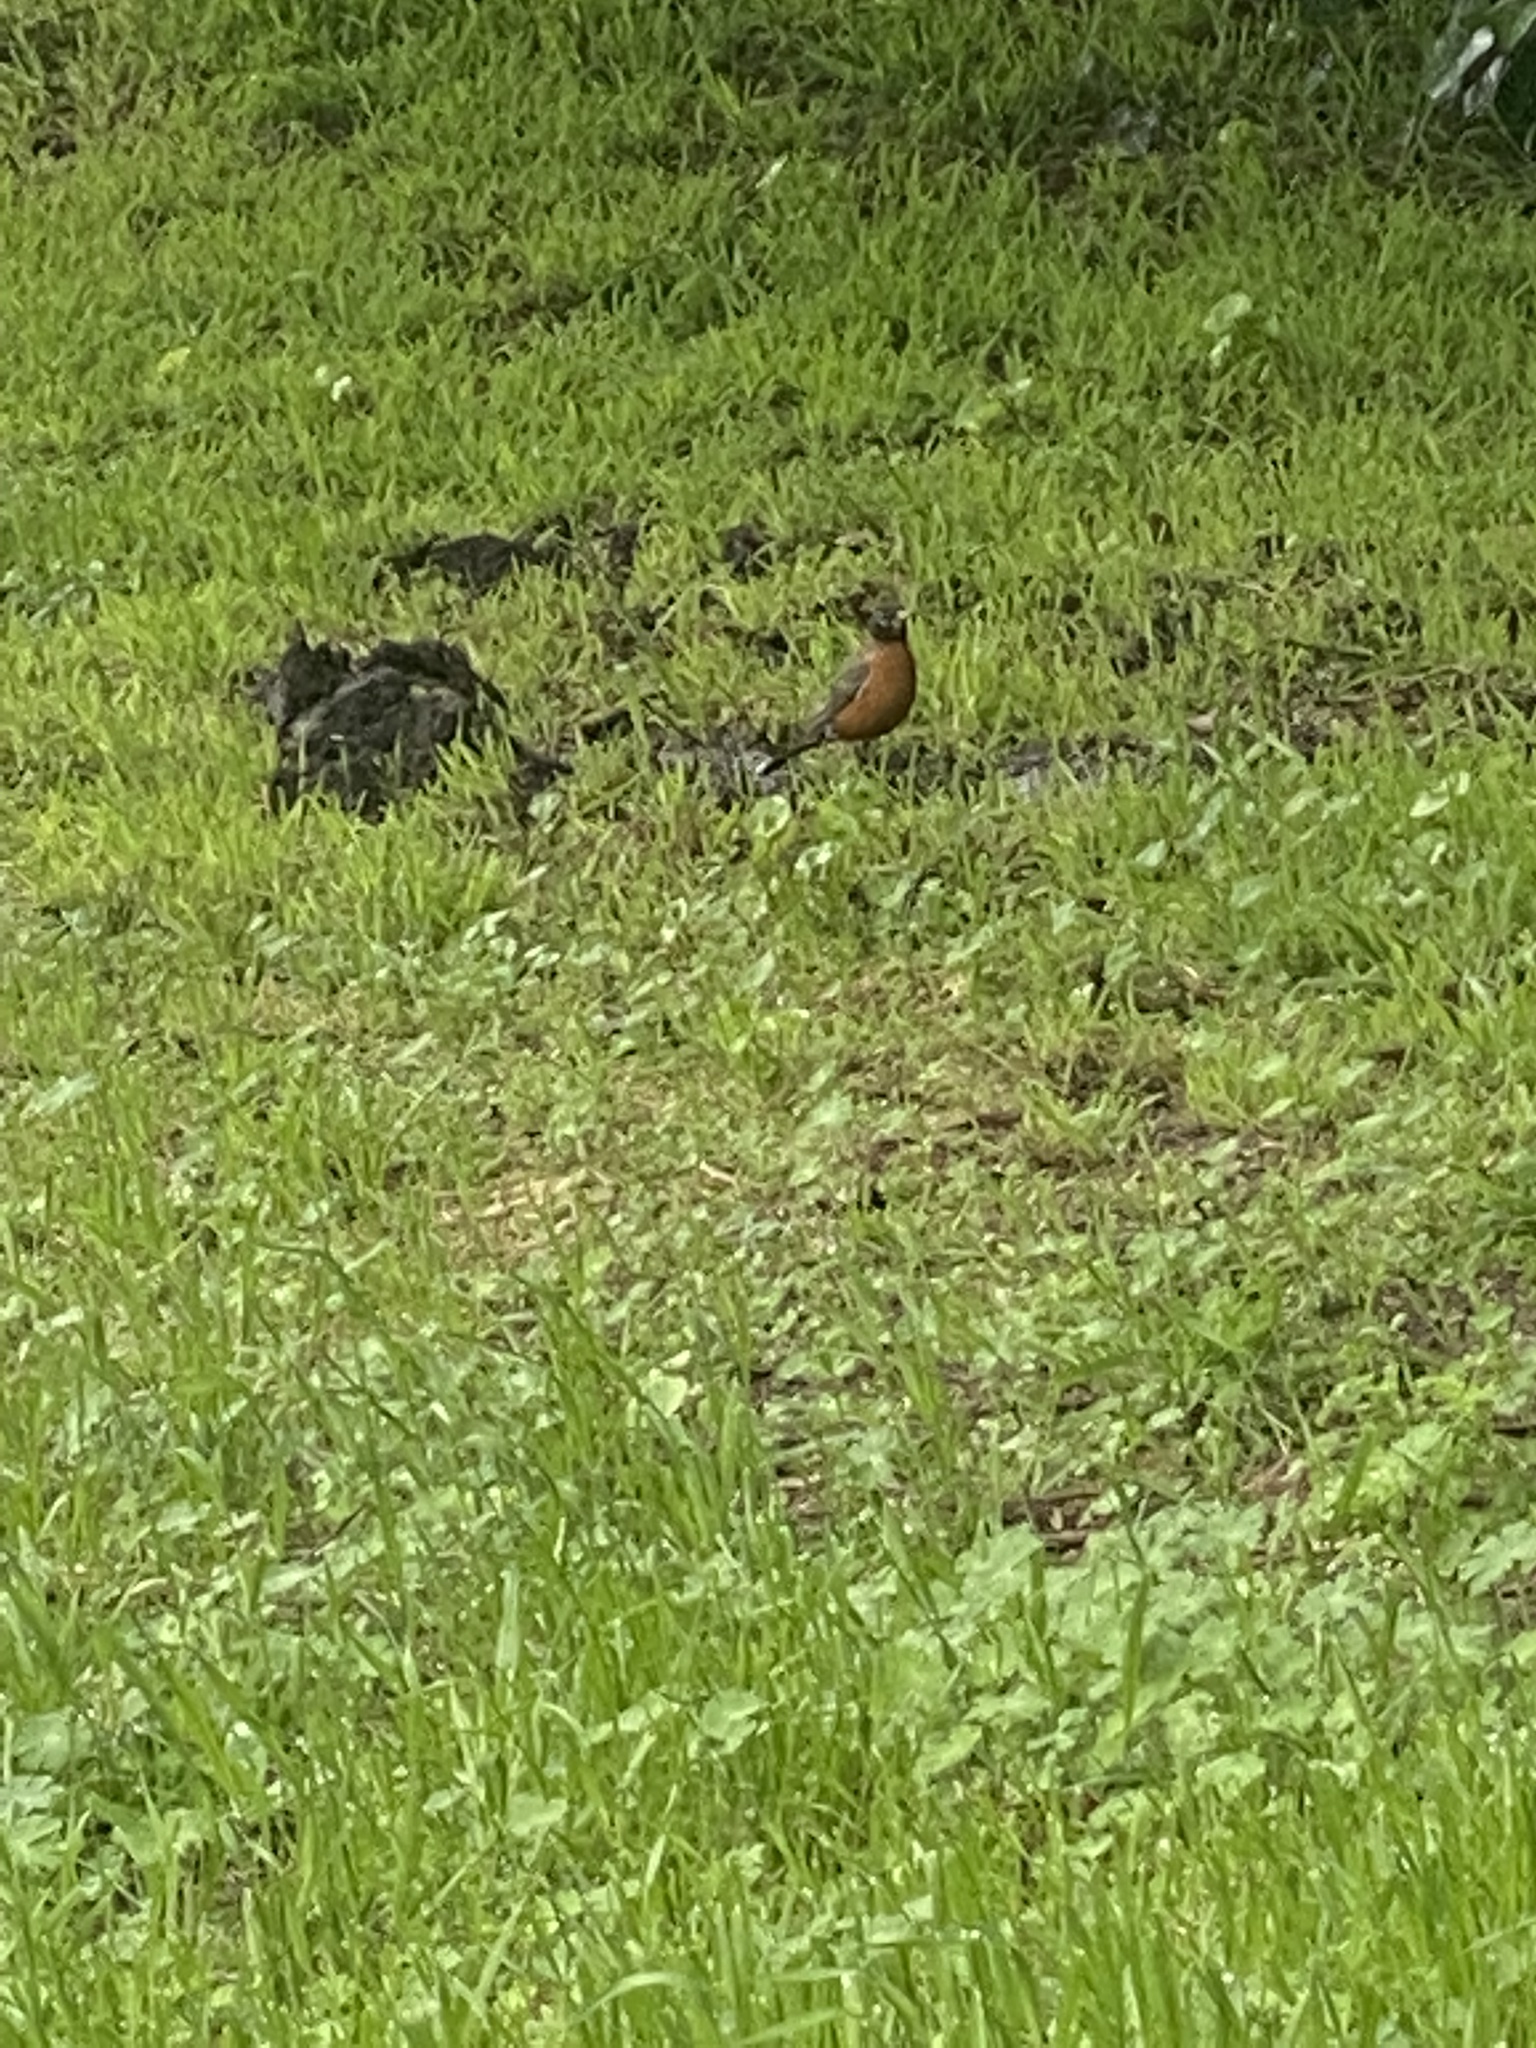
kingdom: Animalia
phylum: Chordata
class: Aves
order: Passeriformes
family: Turdidae
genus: Turdus
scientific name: Turdus migratorius
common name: American robin
